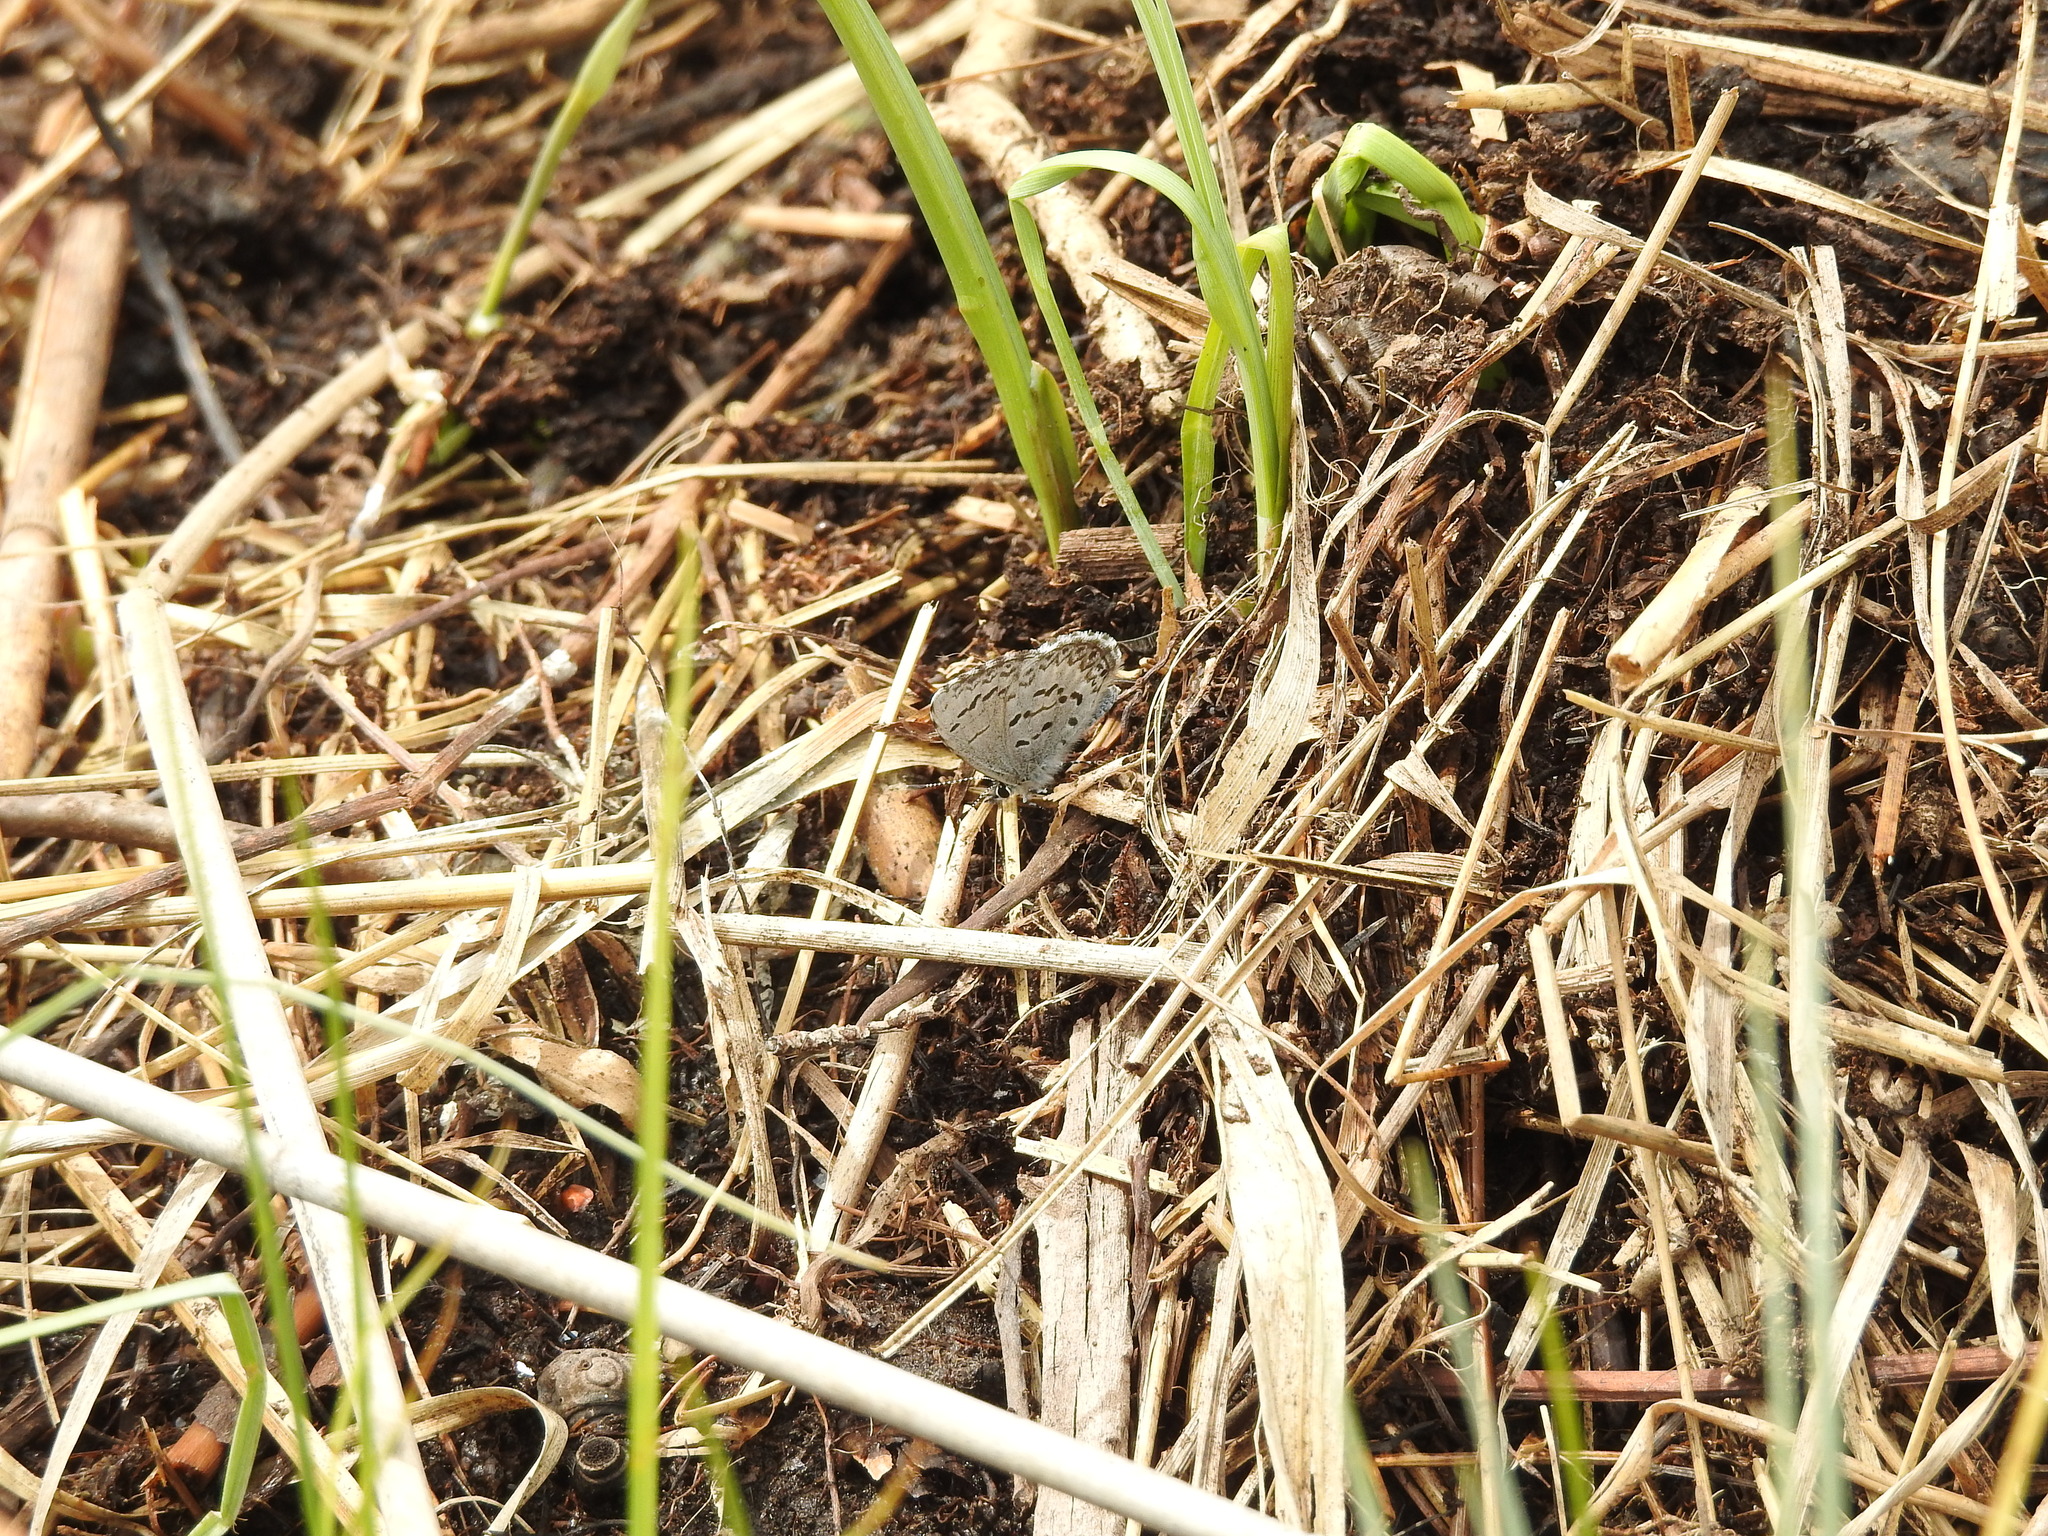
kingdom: Animalia
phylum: Arthropoda
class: Insecta
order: Lepidoptera
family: Lycaenidae
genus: Celastrina
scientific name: Celastrina lucia
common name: Lucia azure
